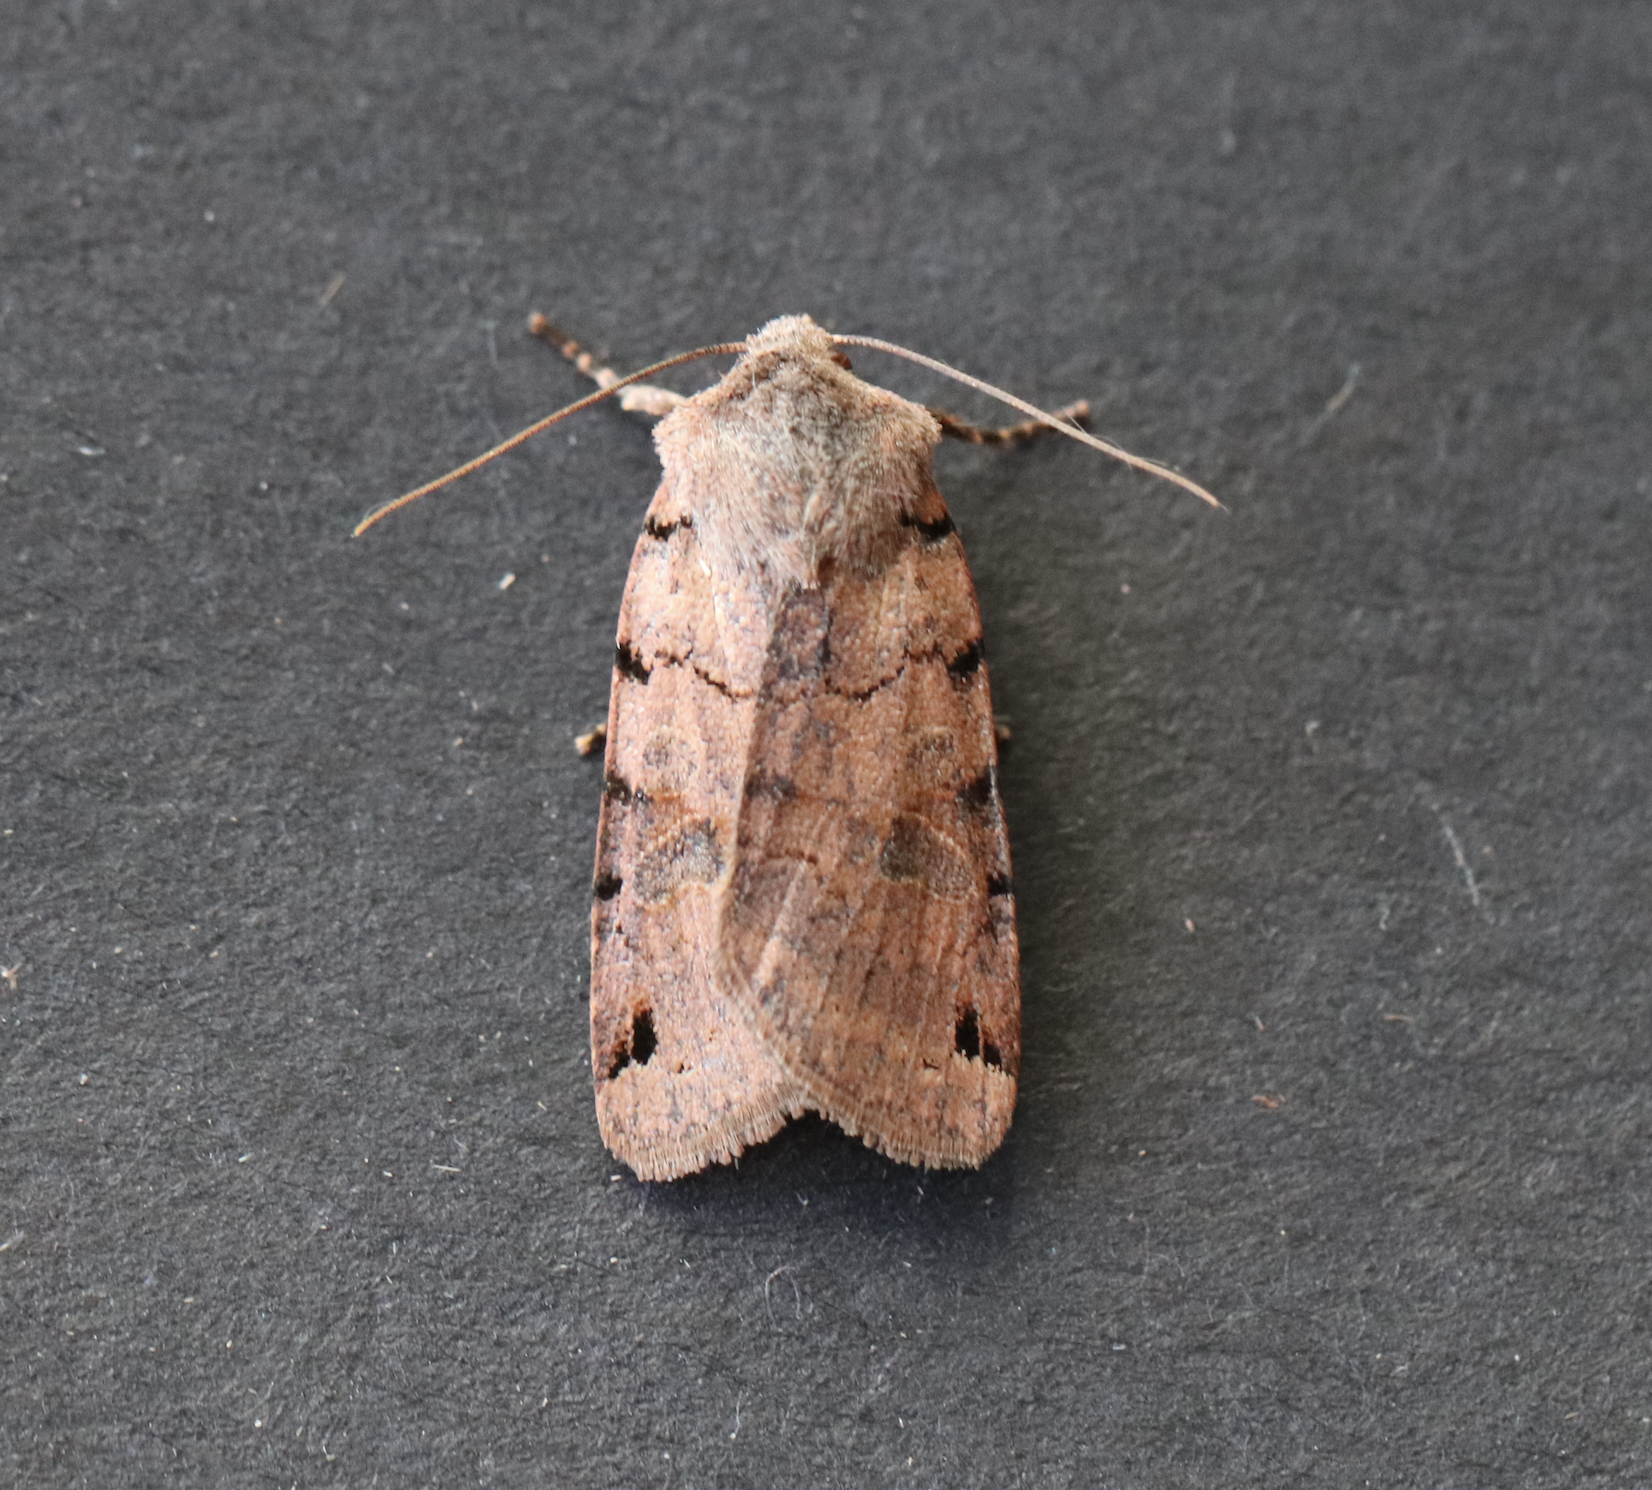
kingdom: Animalia
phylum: Arthropoda
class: Insecta
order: Lepidoptera
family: Noctuidae
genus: Agrochola
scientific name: Agrochola litura
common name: Brown-spot pinion
